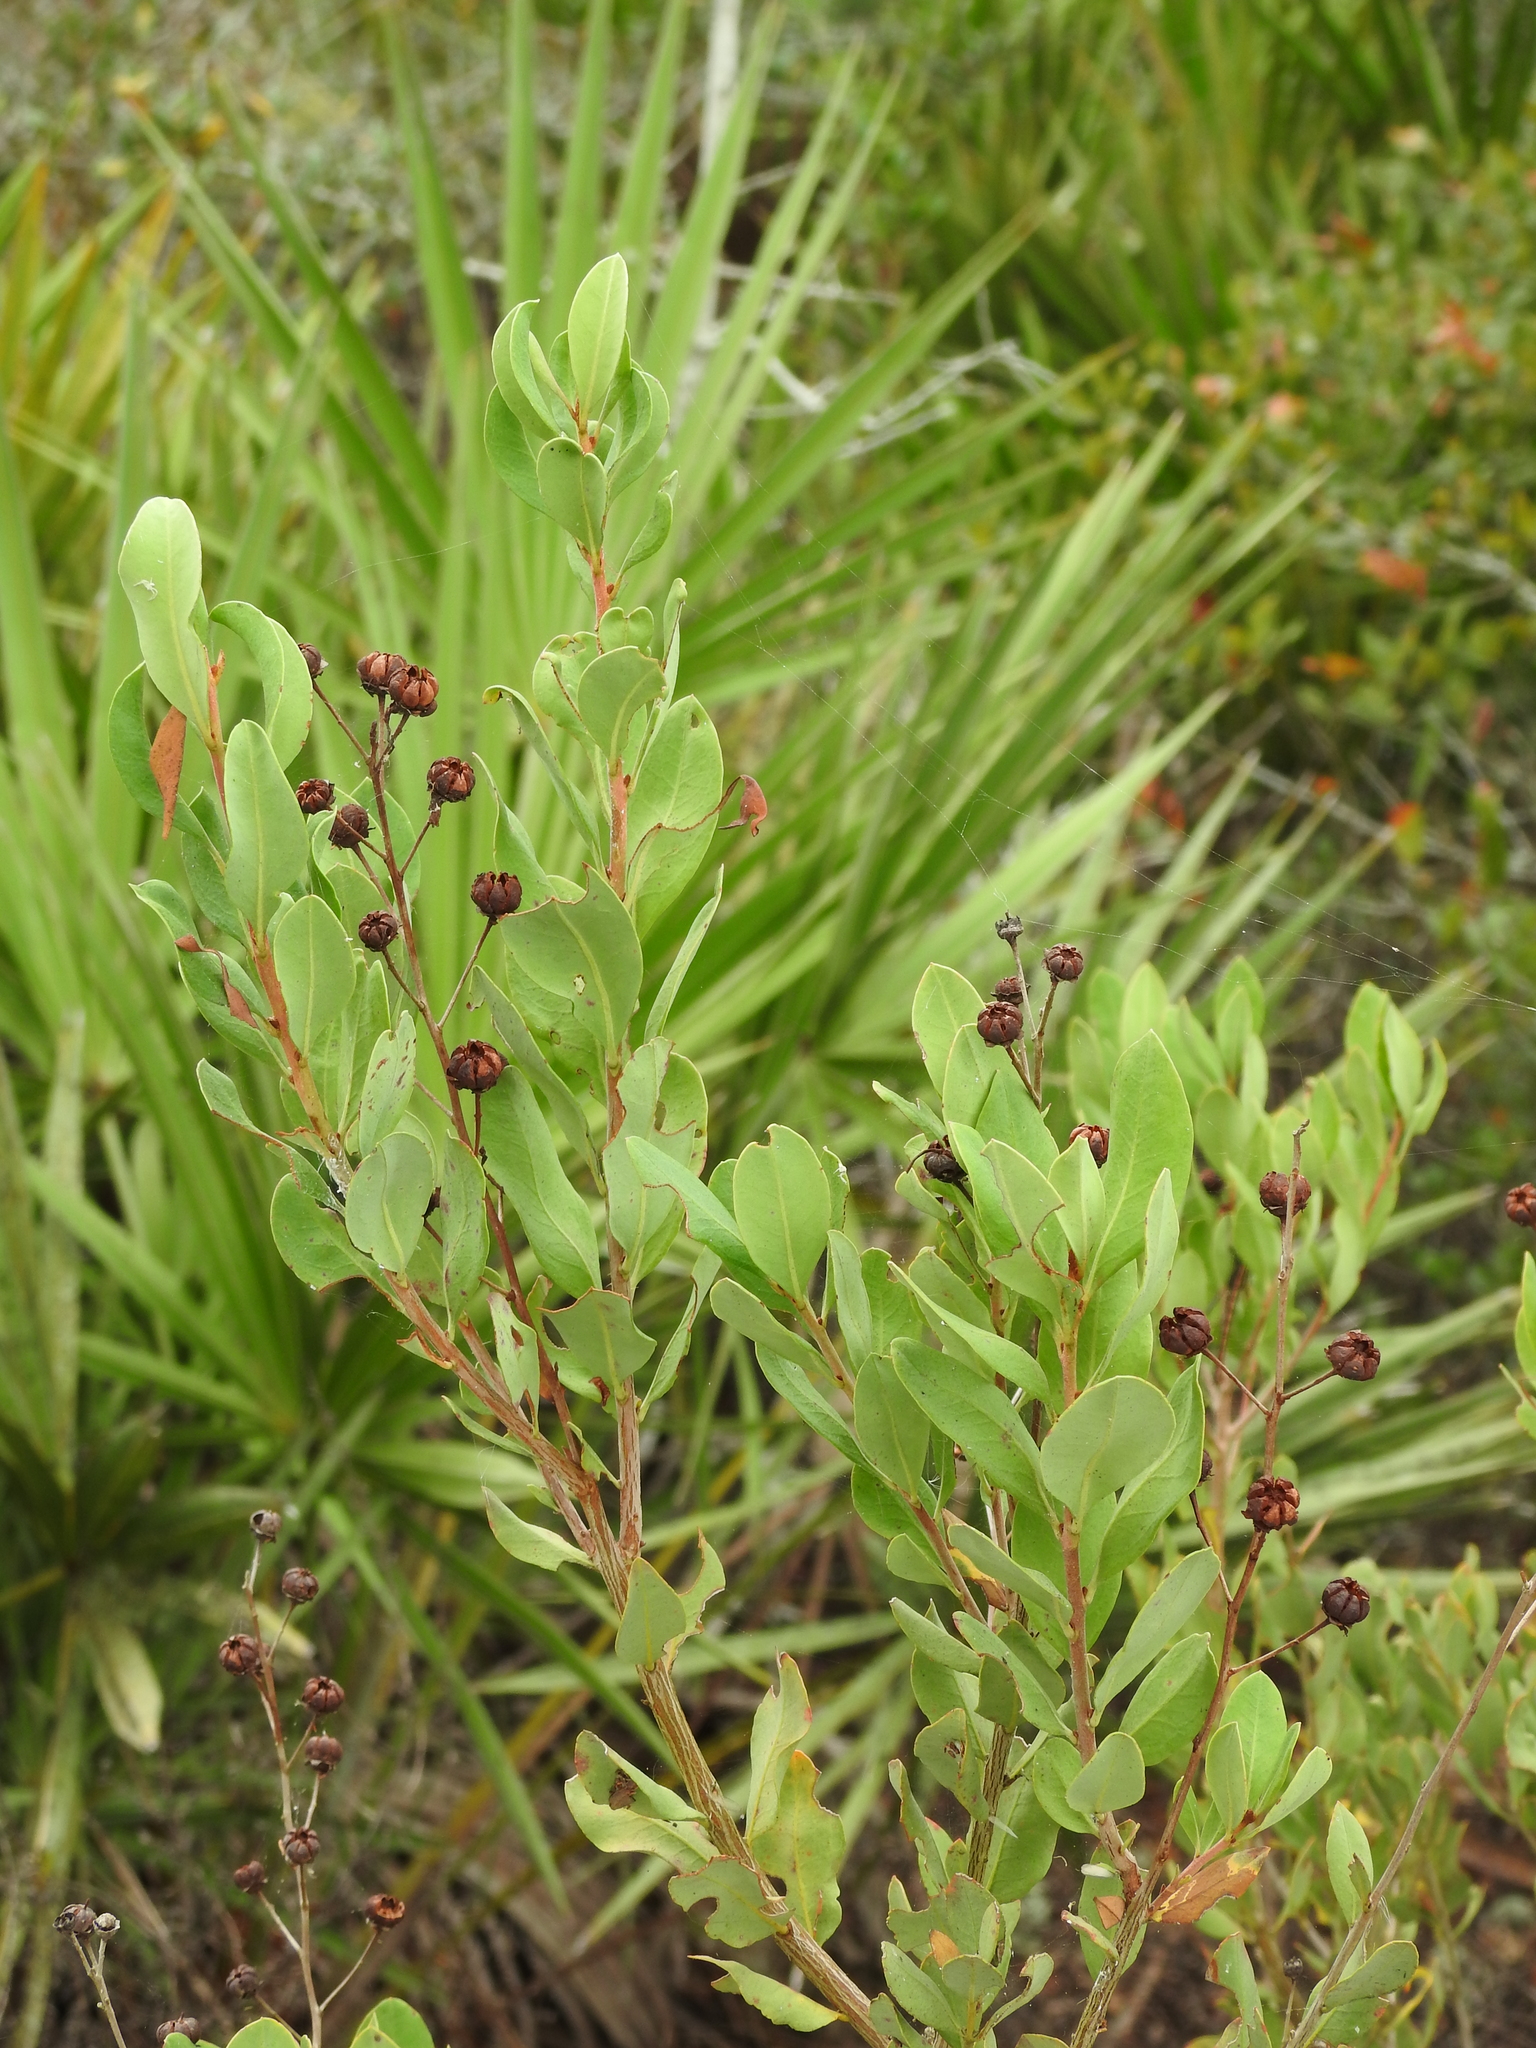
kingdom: Plantae
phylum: Tracheophyta
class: Magnoliopsida
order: Ericales
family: Ericaceae
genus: Bejaria
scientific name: Bejaria racemosa
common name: Tarflower
